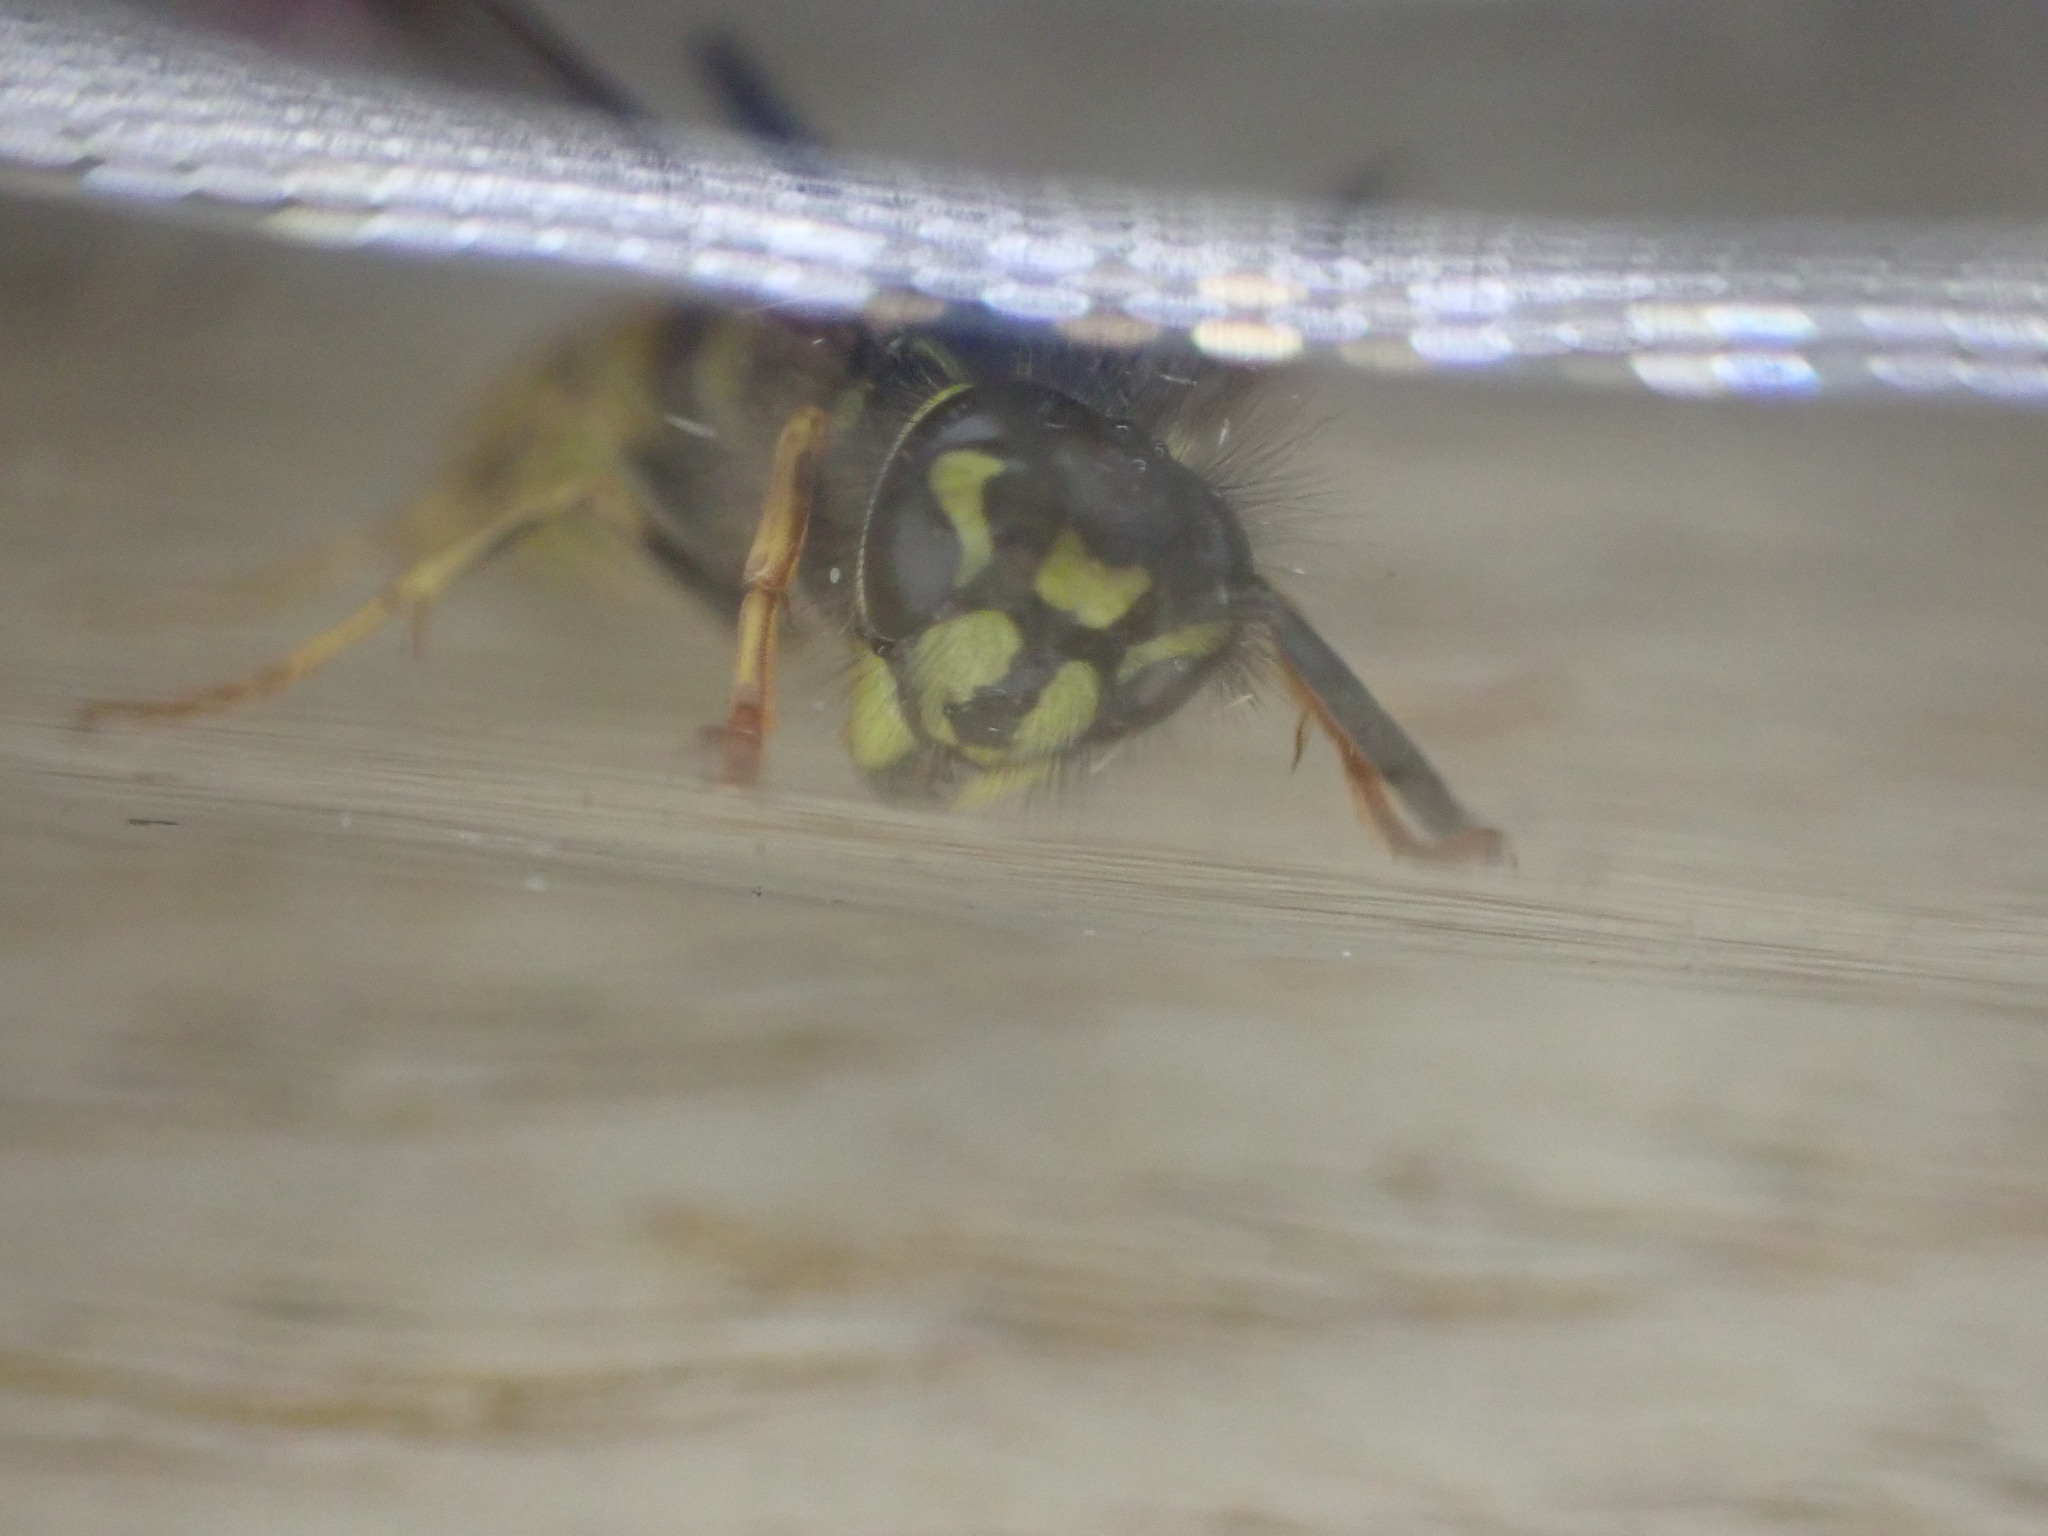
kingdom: Animalia
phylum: Arthropoda
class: Insecta
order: Hymenoptera
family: Vespidae
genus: Vespula
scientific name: Vespula vulgaris
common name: Common wasp
